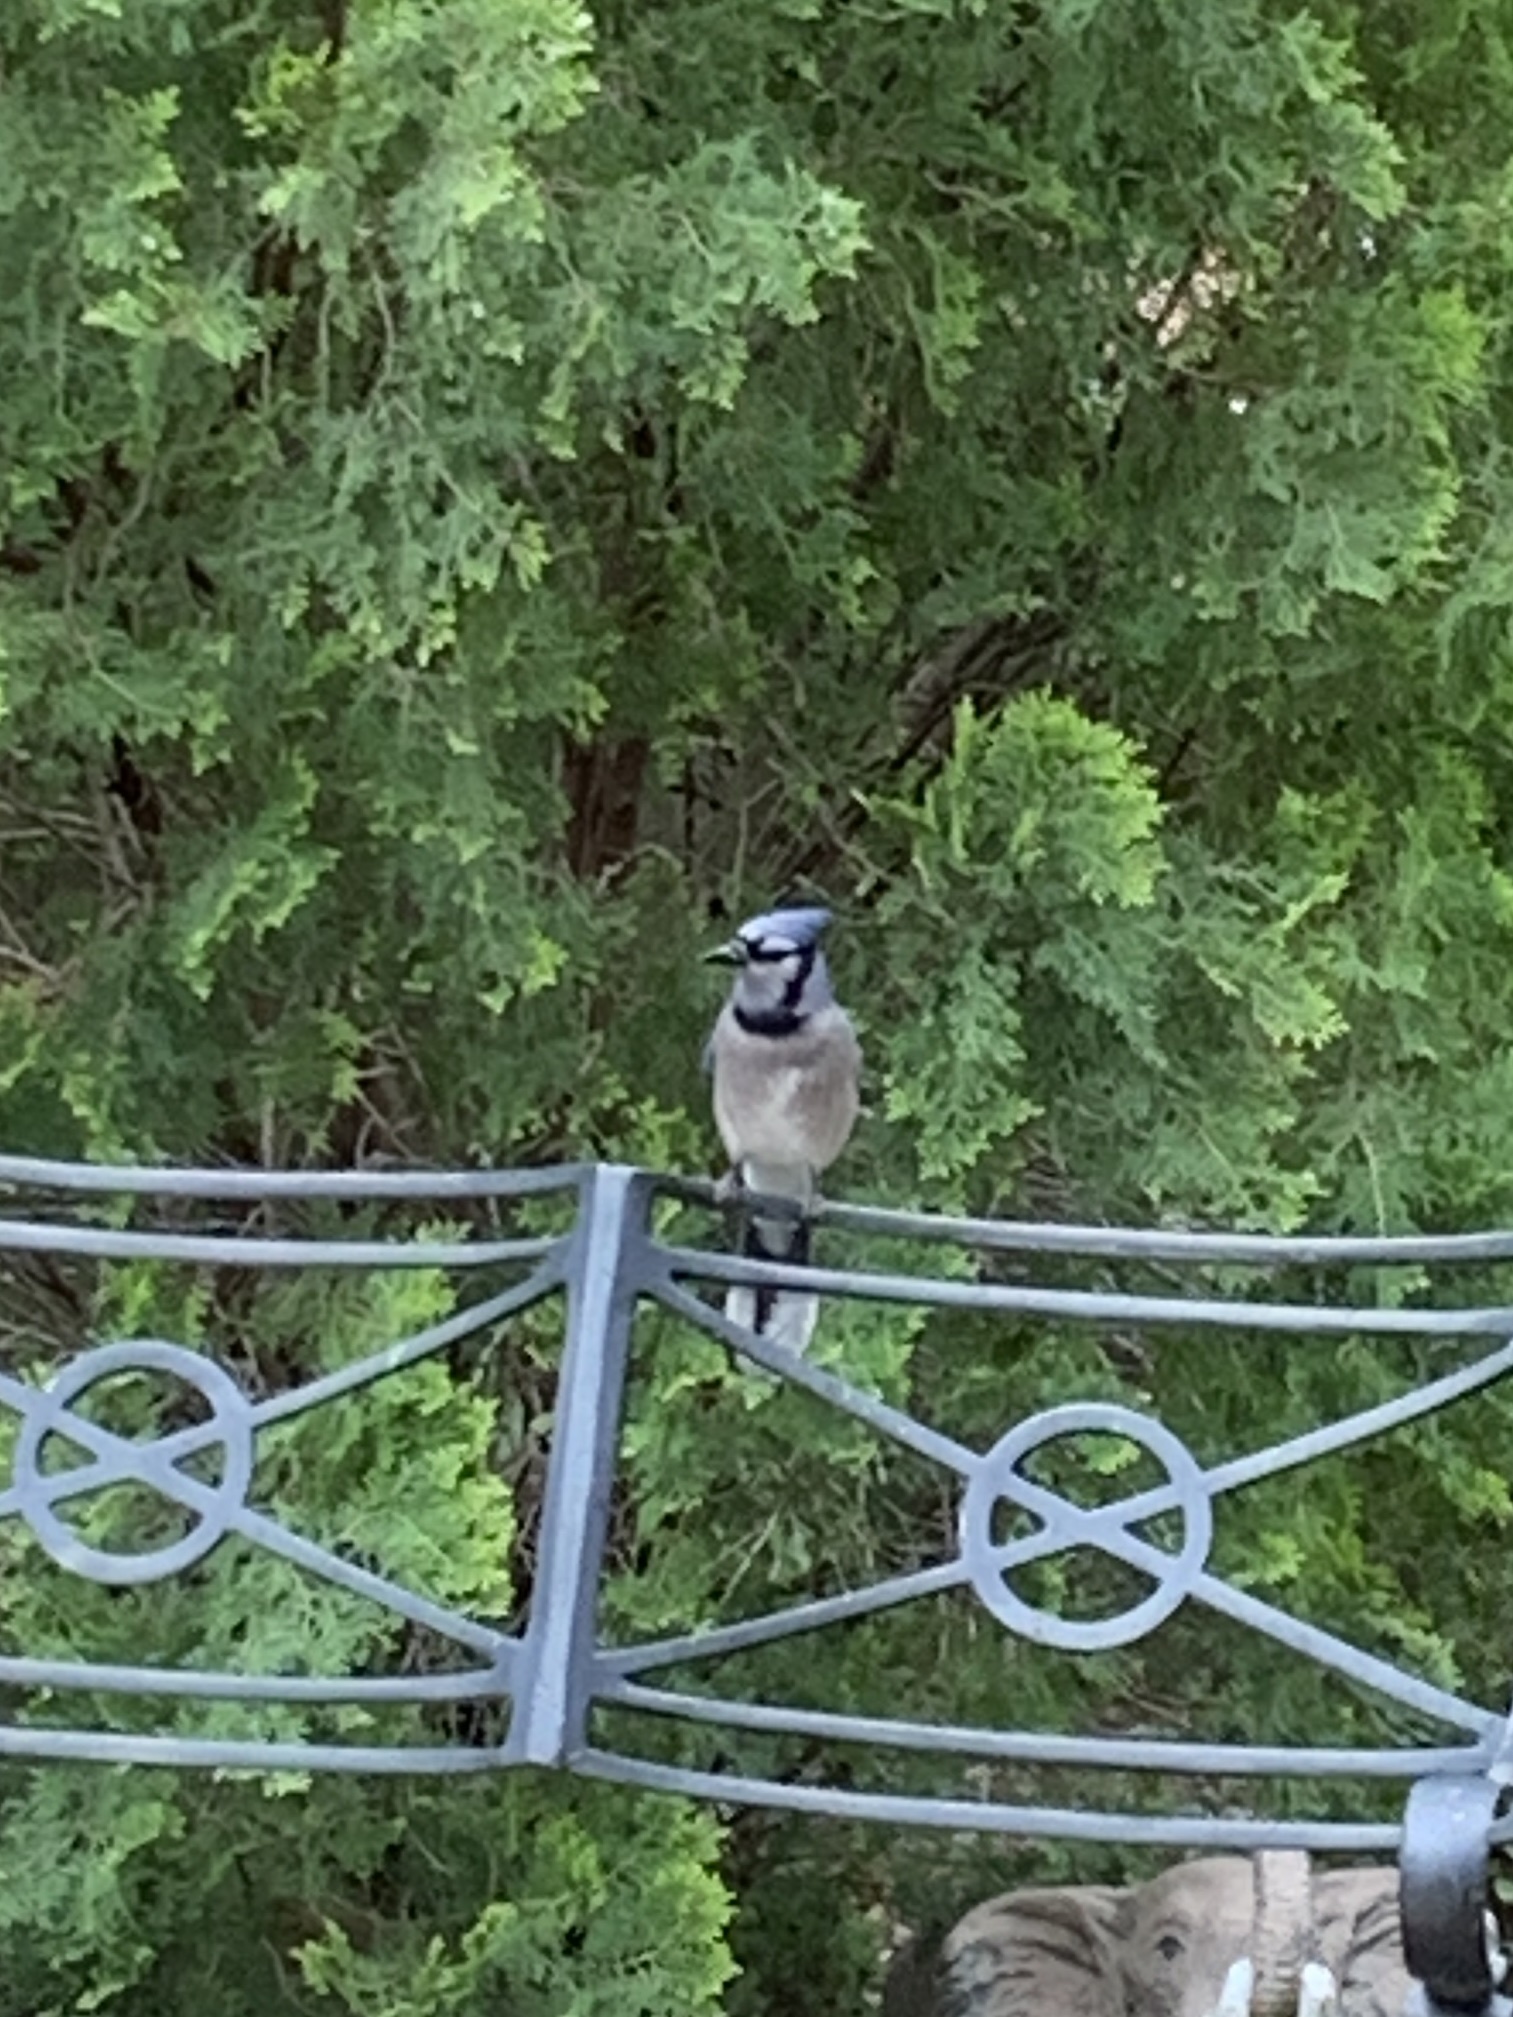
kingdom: Animalia
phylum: Chordata
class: Aves
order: Passeriformes
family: Corvidae
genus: Cyanocitta
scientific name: Cyanocitta cristata
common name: Blue jay
